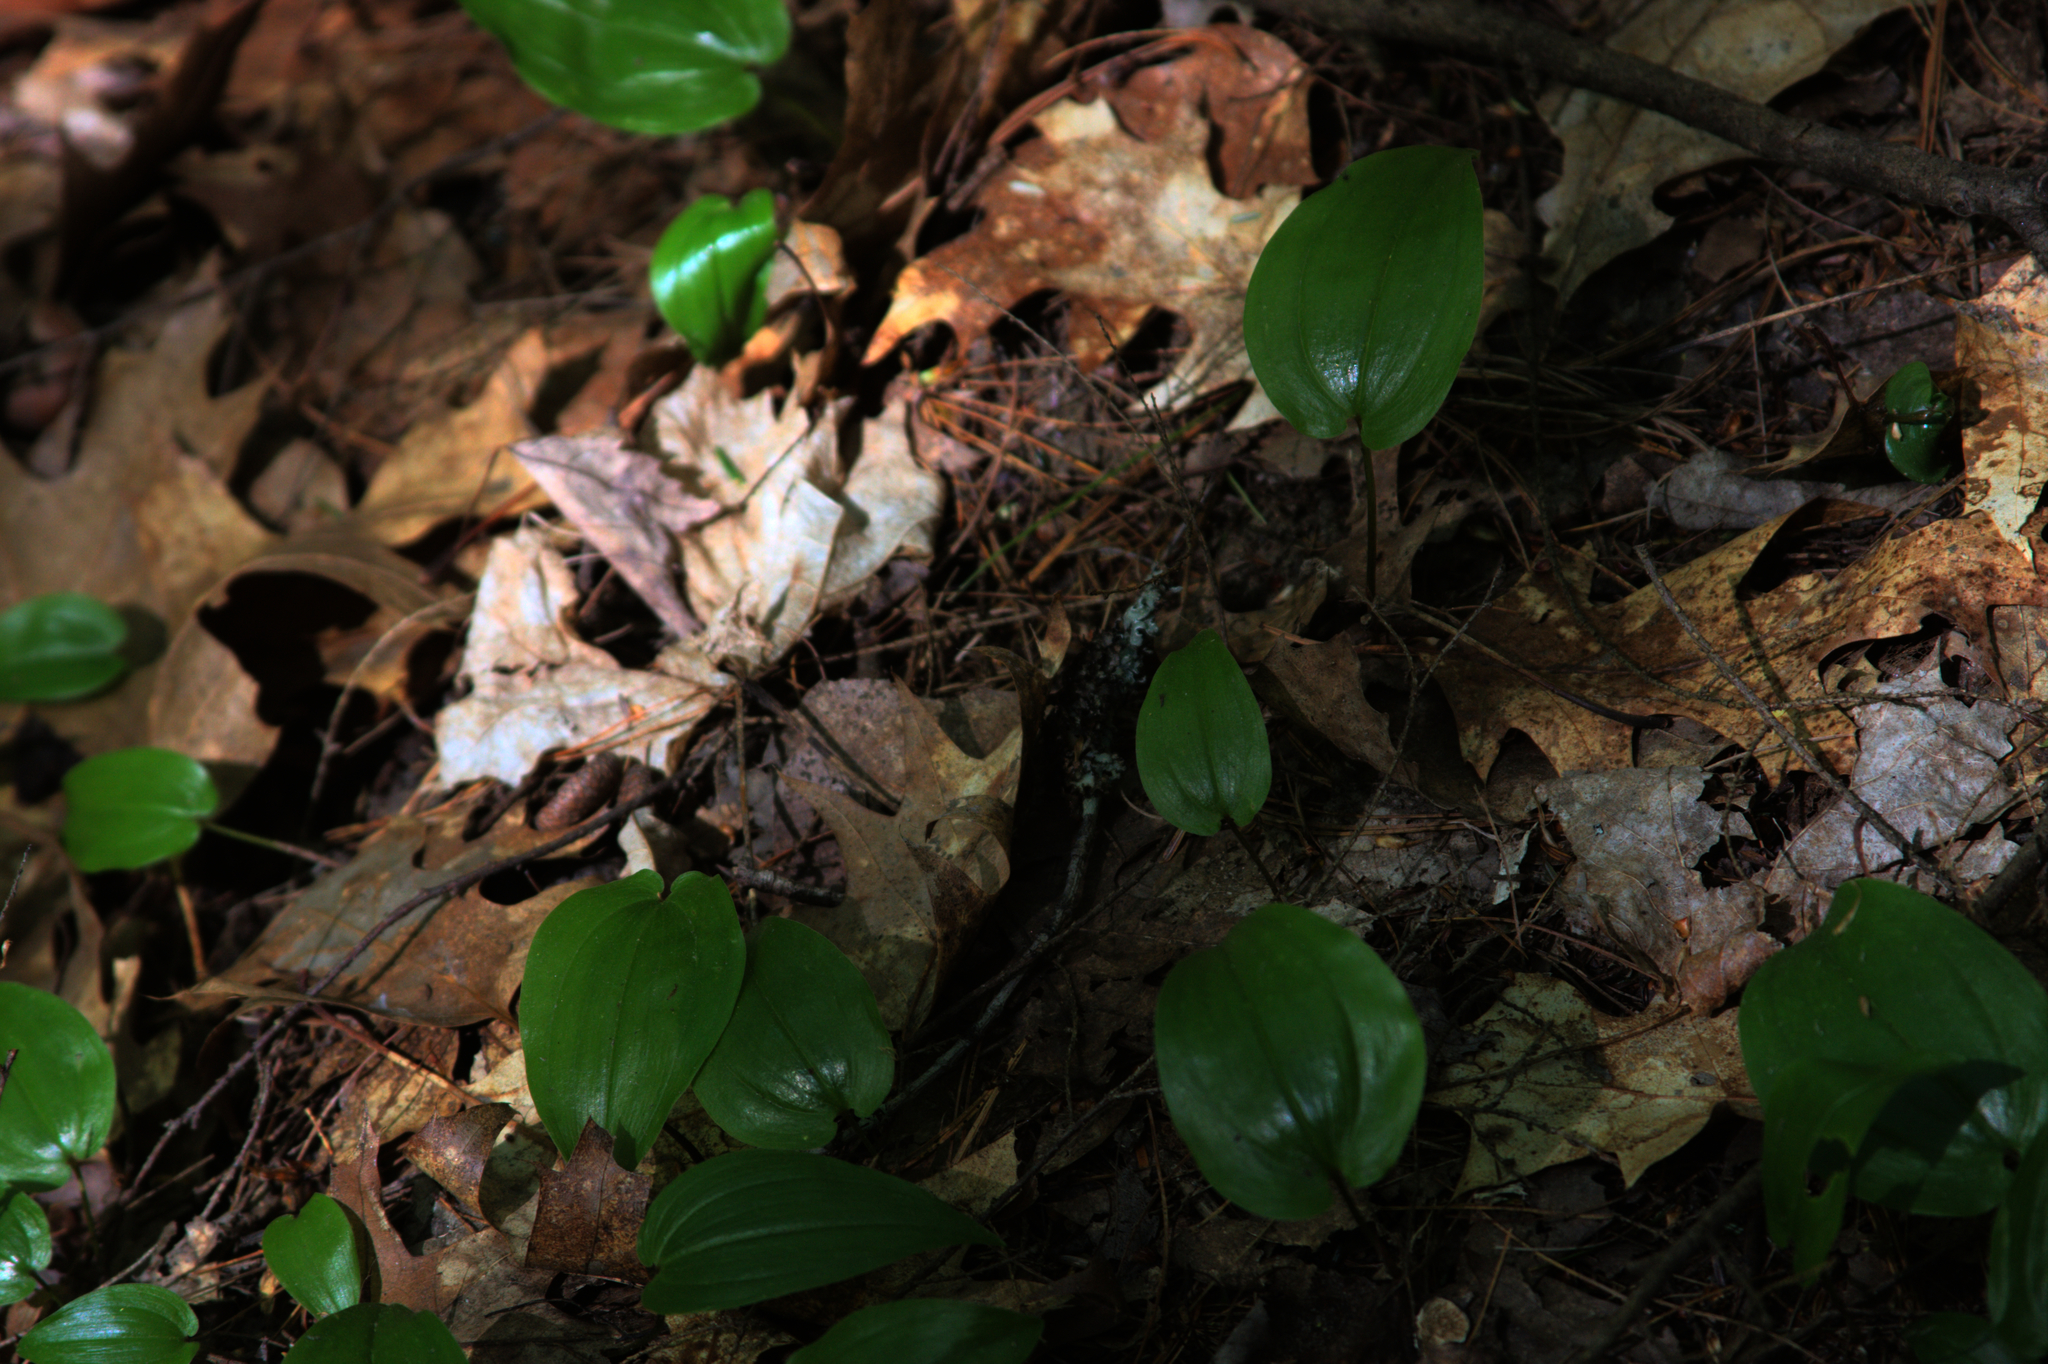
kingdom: Plantae
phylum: Tracheophyta
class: Liliopsida
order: Asparagales
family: Asparagaceae
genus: Maianthemum
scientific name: Maianthemum canadense
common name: False lily-of-the-valley
